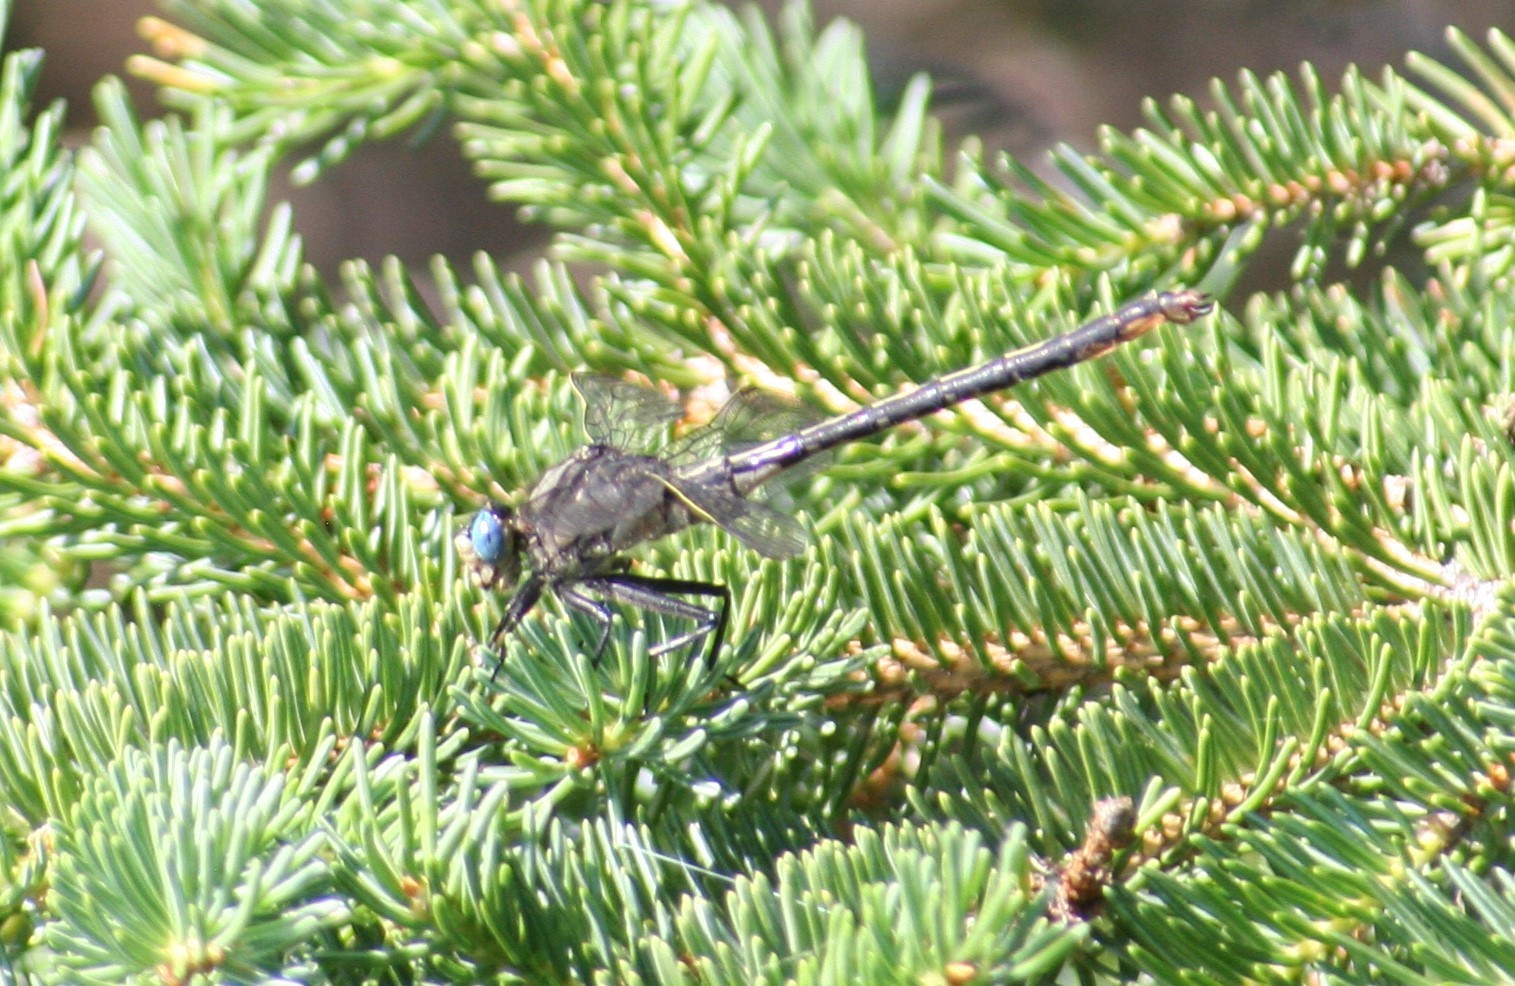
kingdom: Animalia
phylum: Arthropoda
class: Insecta
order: Odonata
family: Gomphidae
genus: Arigomphus
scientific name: Arigomphus cornutus
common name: Horned clubtail
